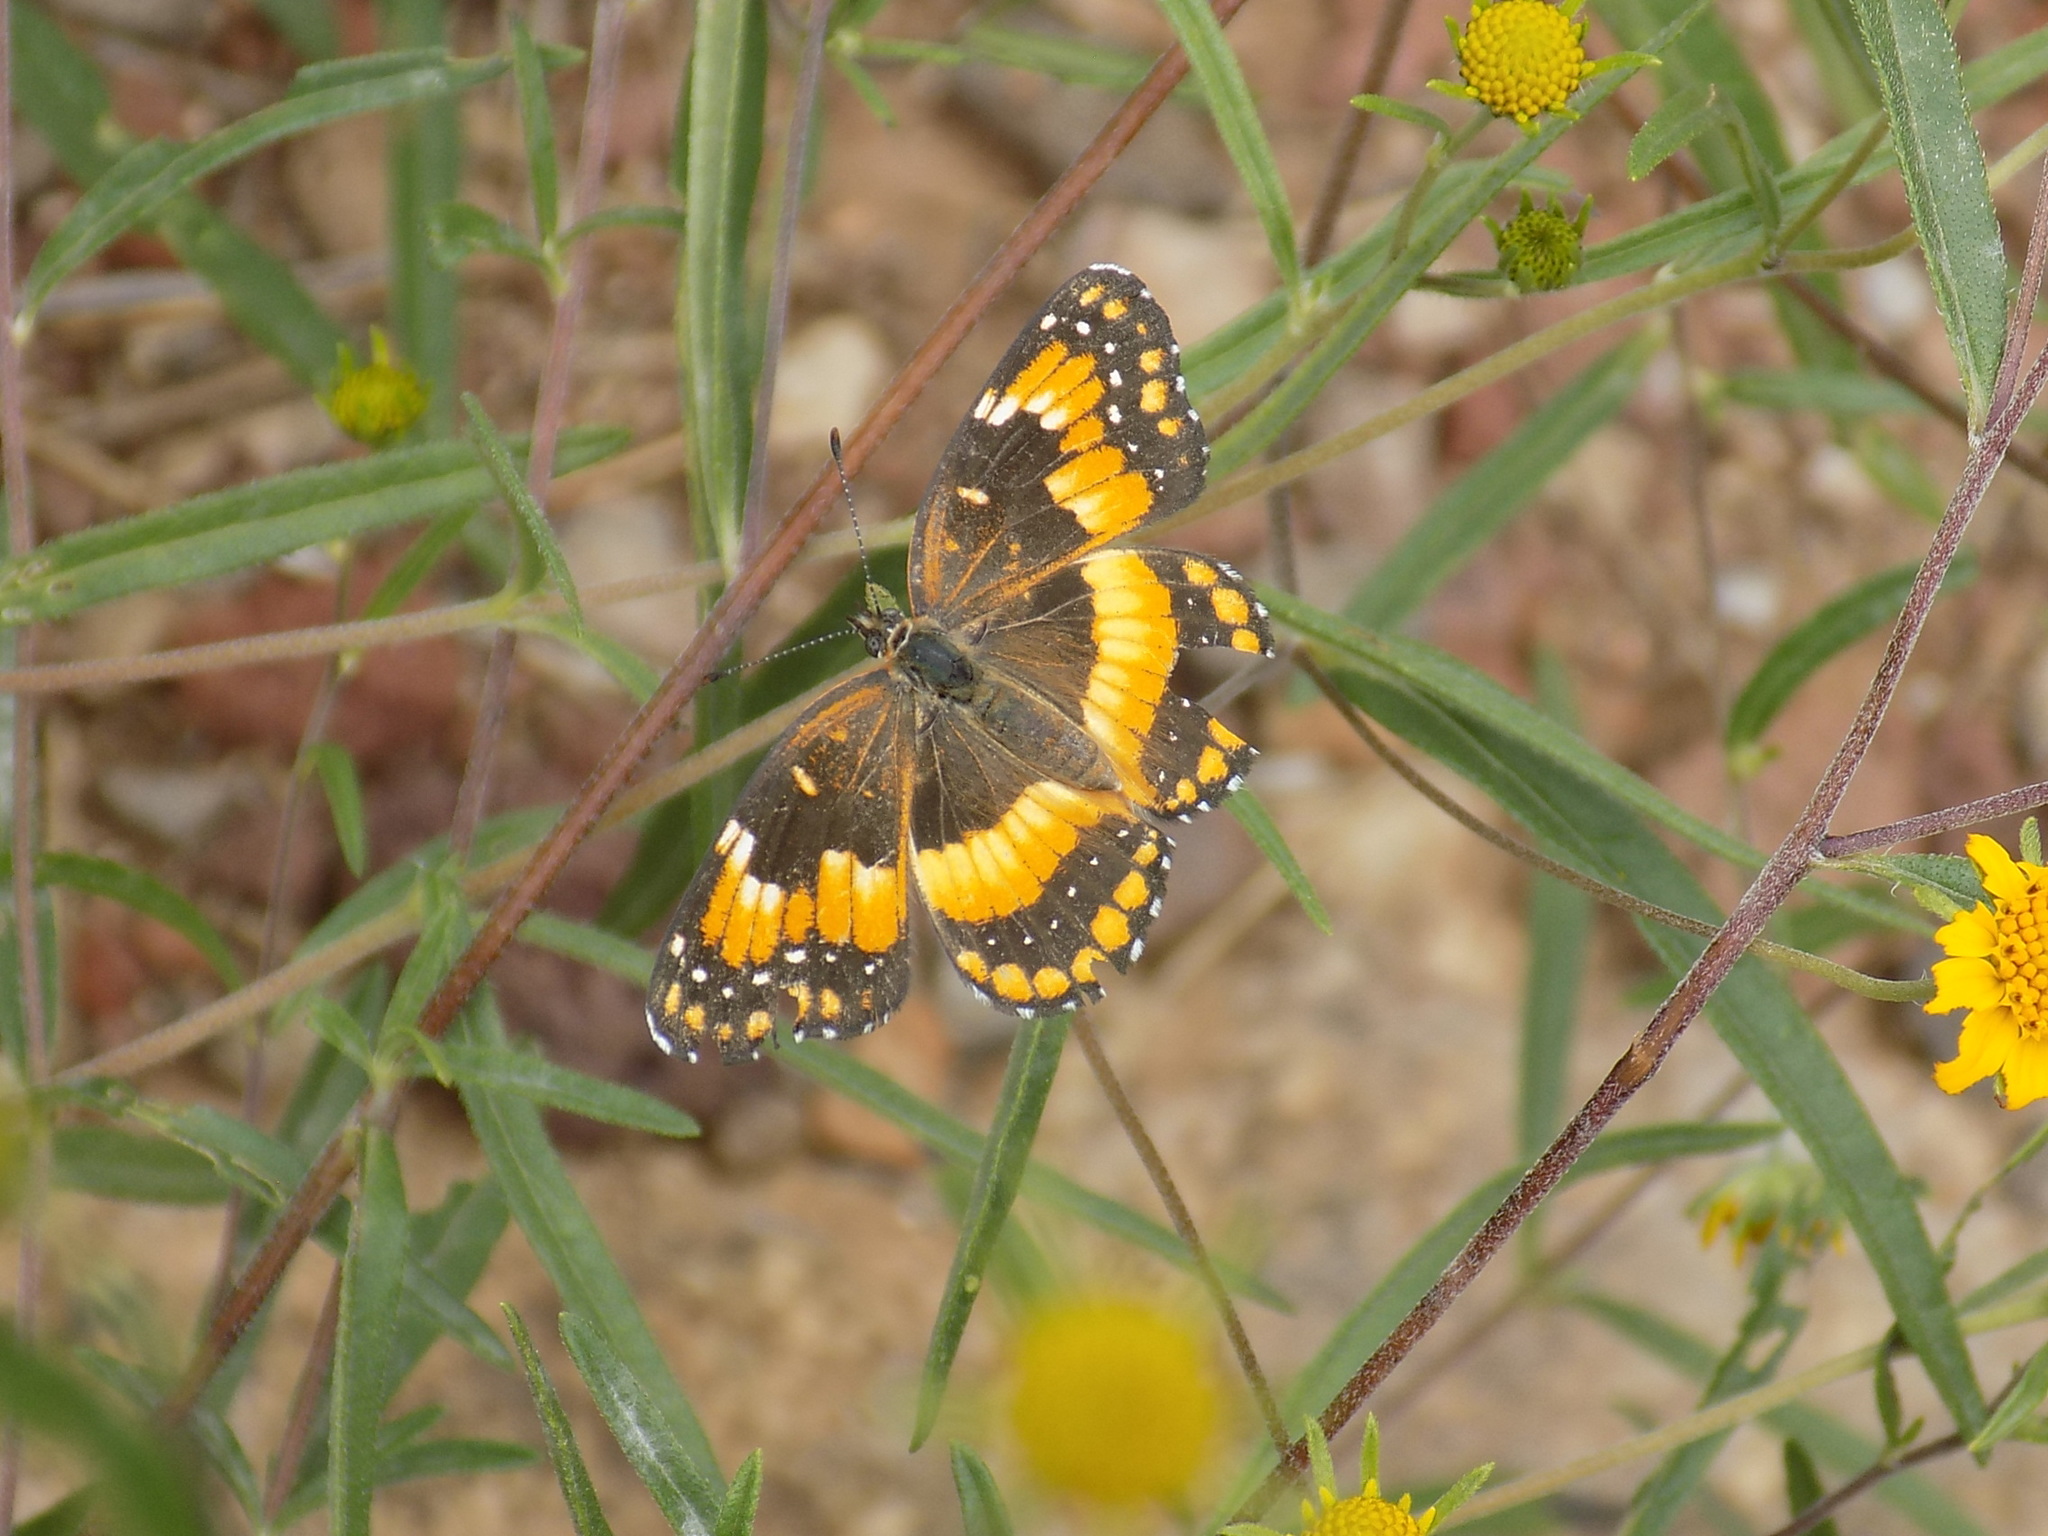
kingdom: Animalia
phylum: Arthropoda
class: Insecta
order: Lepidoptera
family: Nymphalidae
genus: Chlosyne
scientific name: Chlosyne californica
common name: California patch
